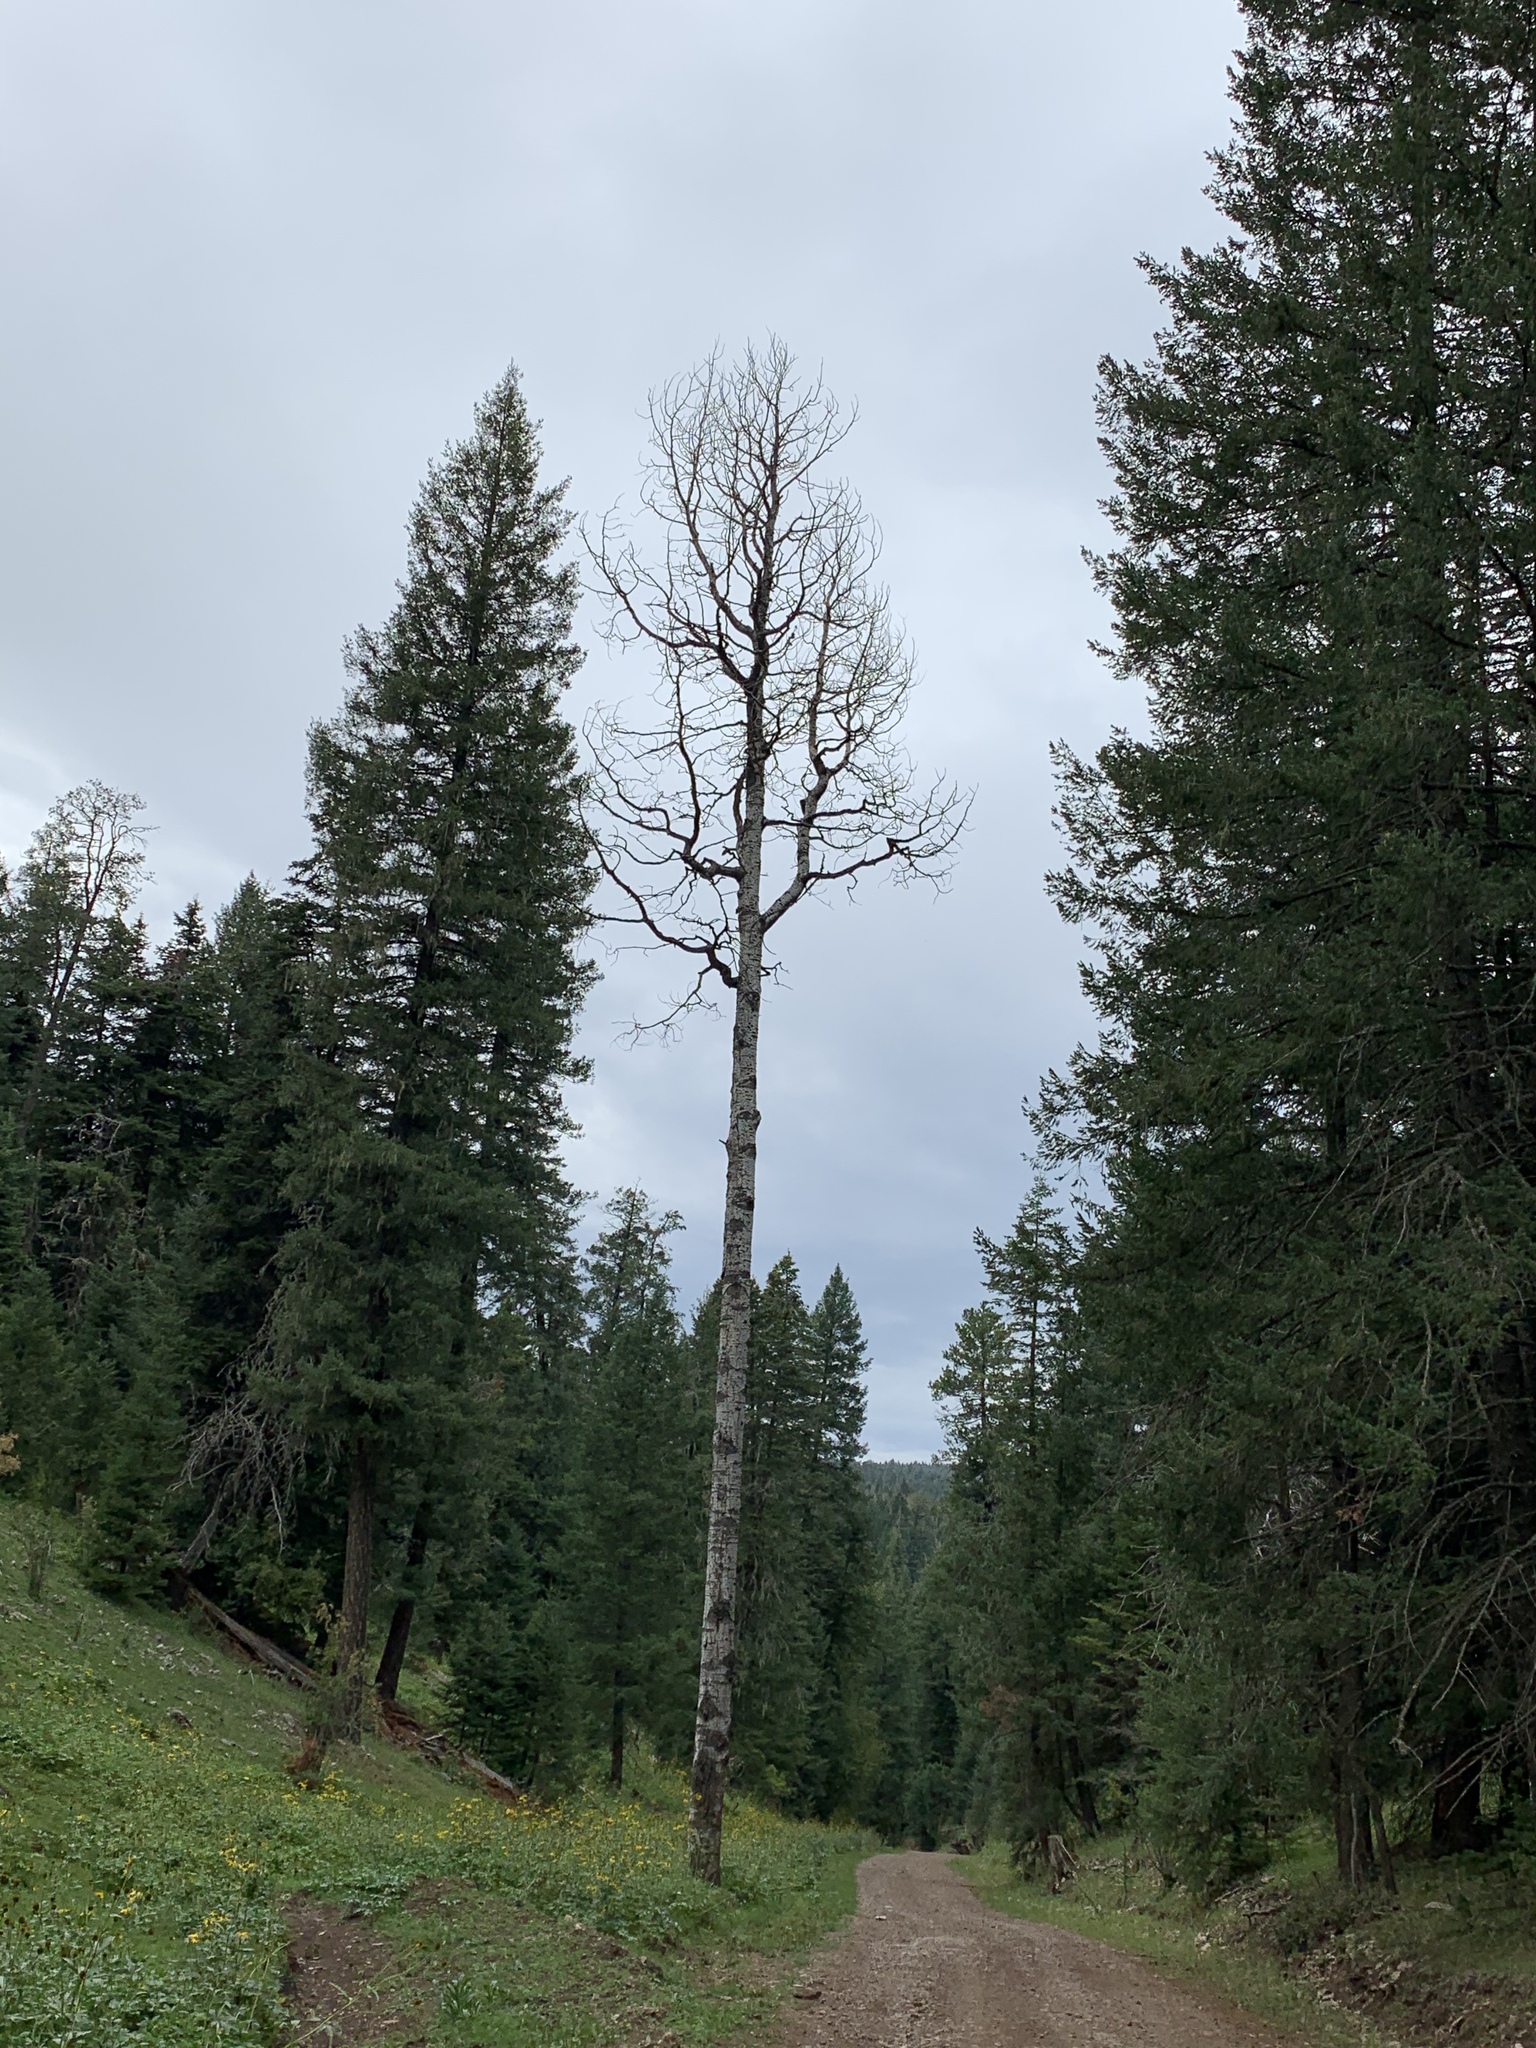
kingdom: Plantae
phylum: Tracheophyta
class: Magnoliopsida
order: Malpighiales
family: Salicaceae
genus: Populus
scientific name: Populus tremuloides
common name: Quaking aspen
